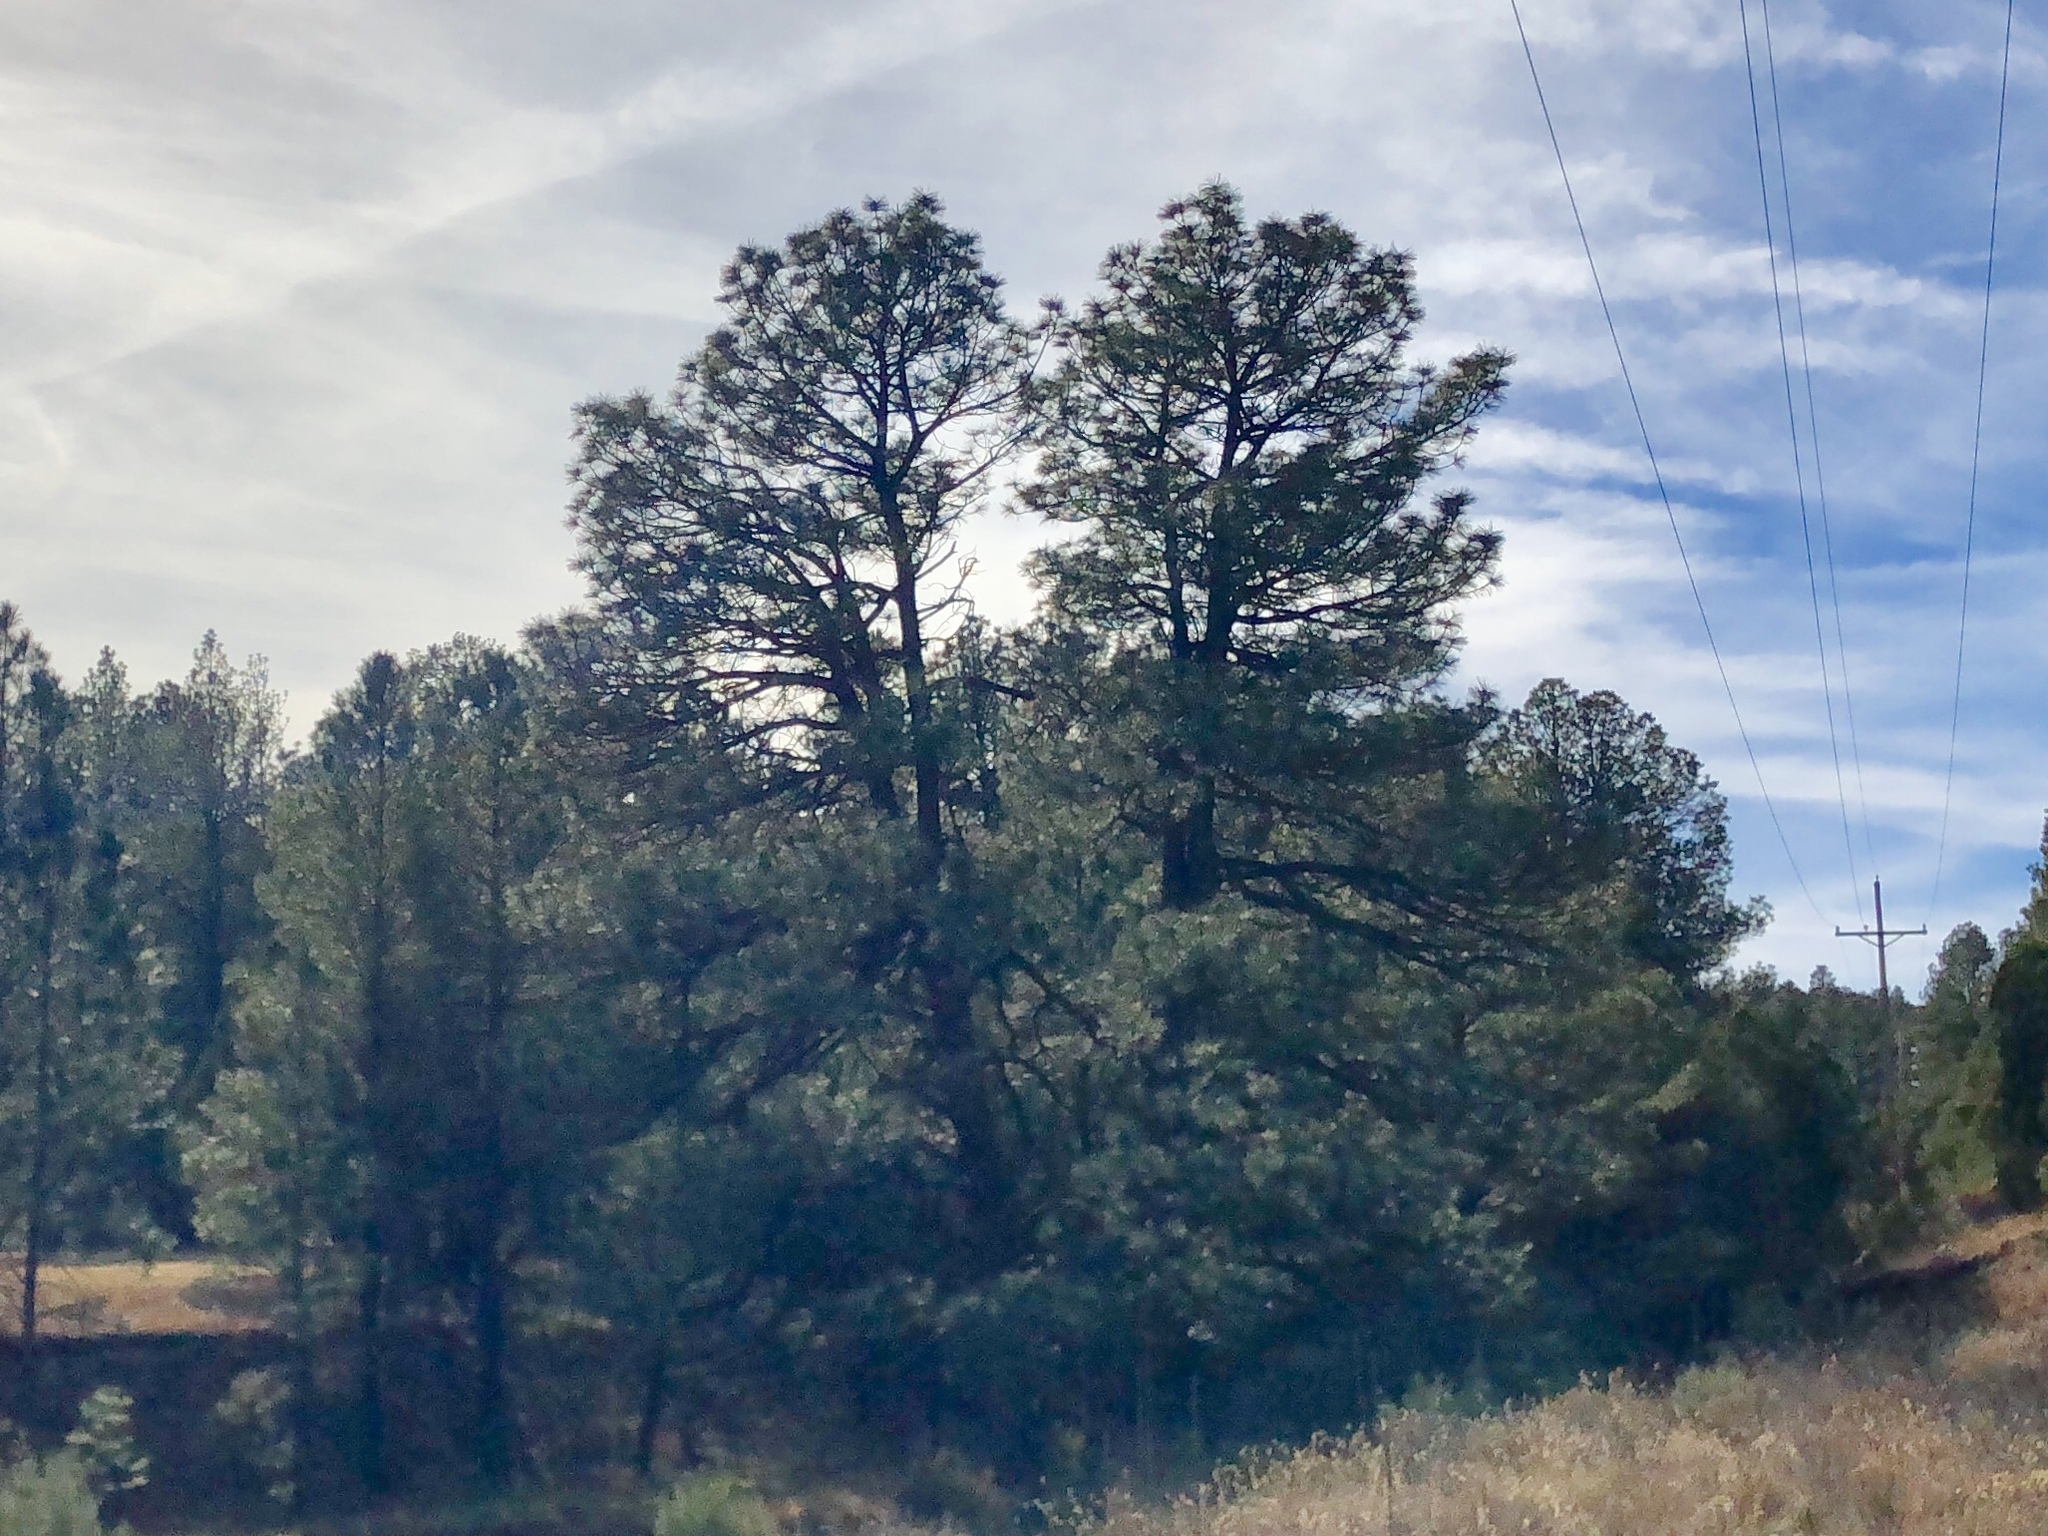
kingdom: Plantae
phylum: Tracheophyta
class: Pinopsida
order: Pinales
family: Pinaceae
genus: Pinus
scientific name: Pinus ponderosa
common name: Western yellow-pine
